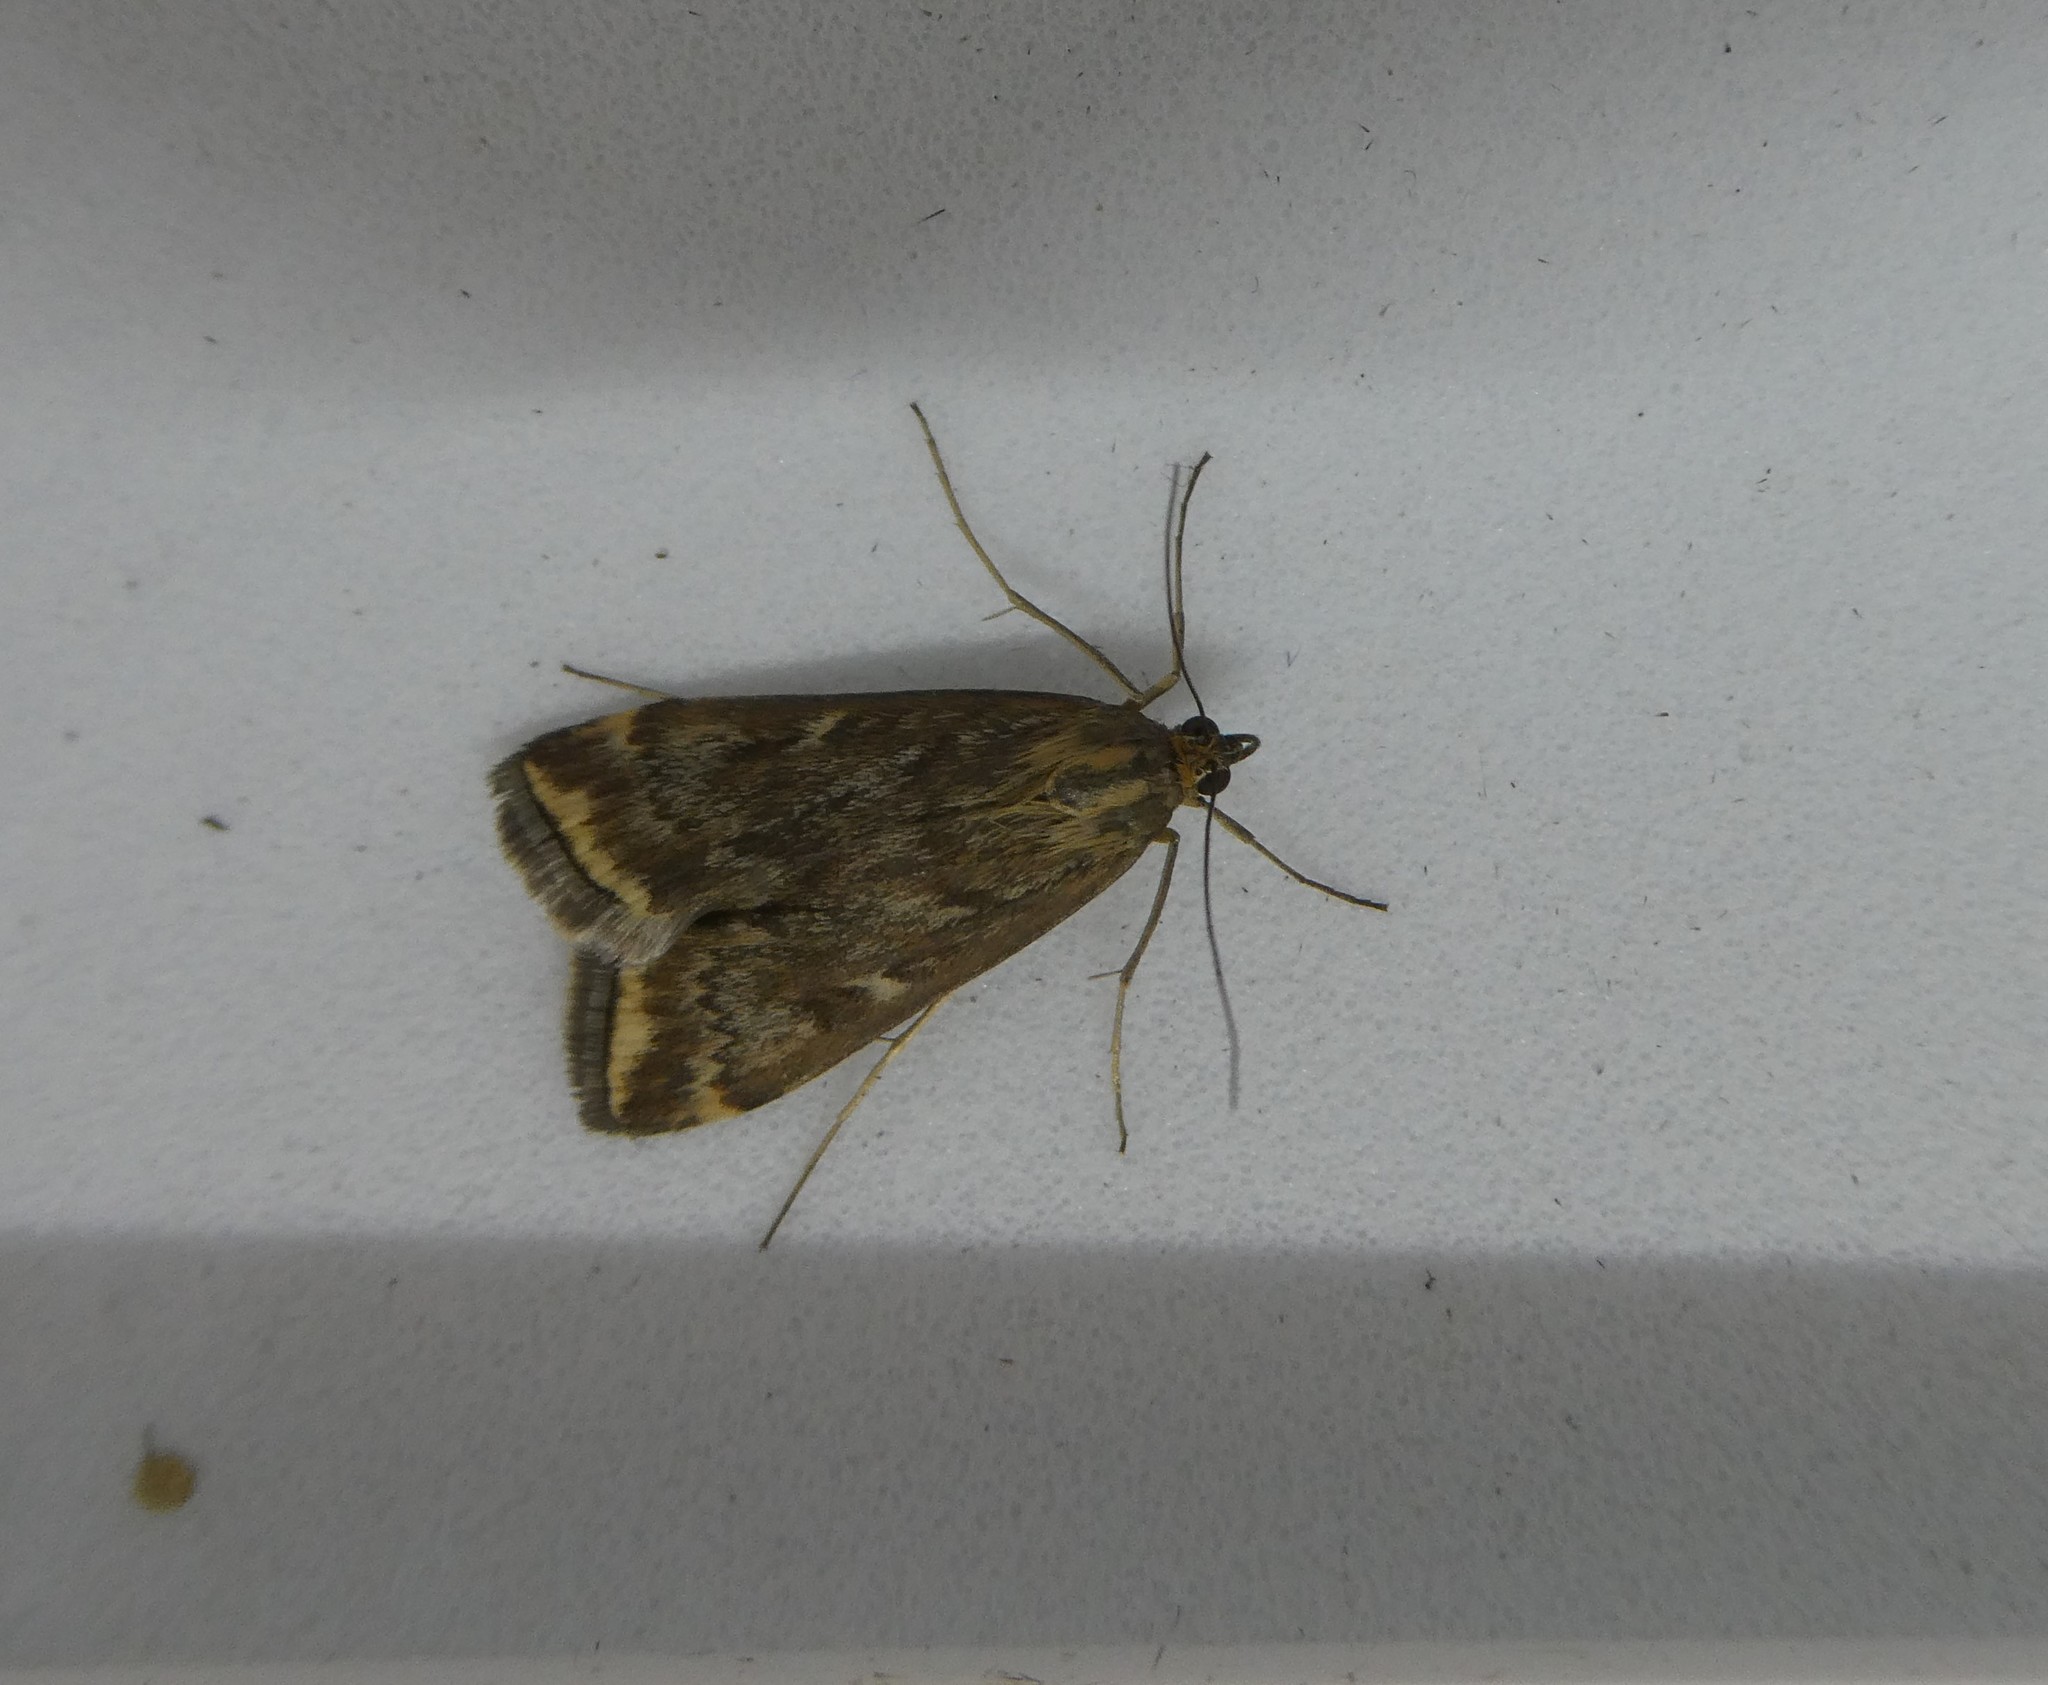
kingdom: Animalia
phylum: Arthropoda
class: Insecta
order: Lepidoptera
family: Crambidae
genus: Loxostege
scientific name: Loxostege
